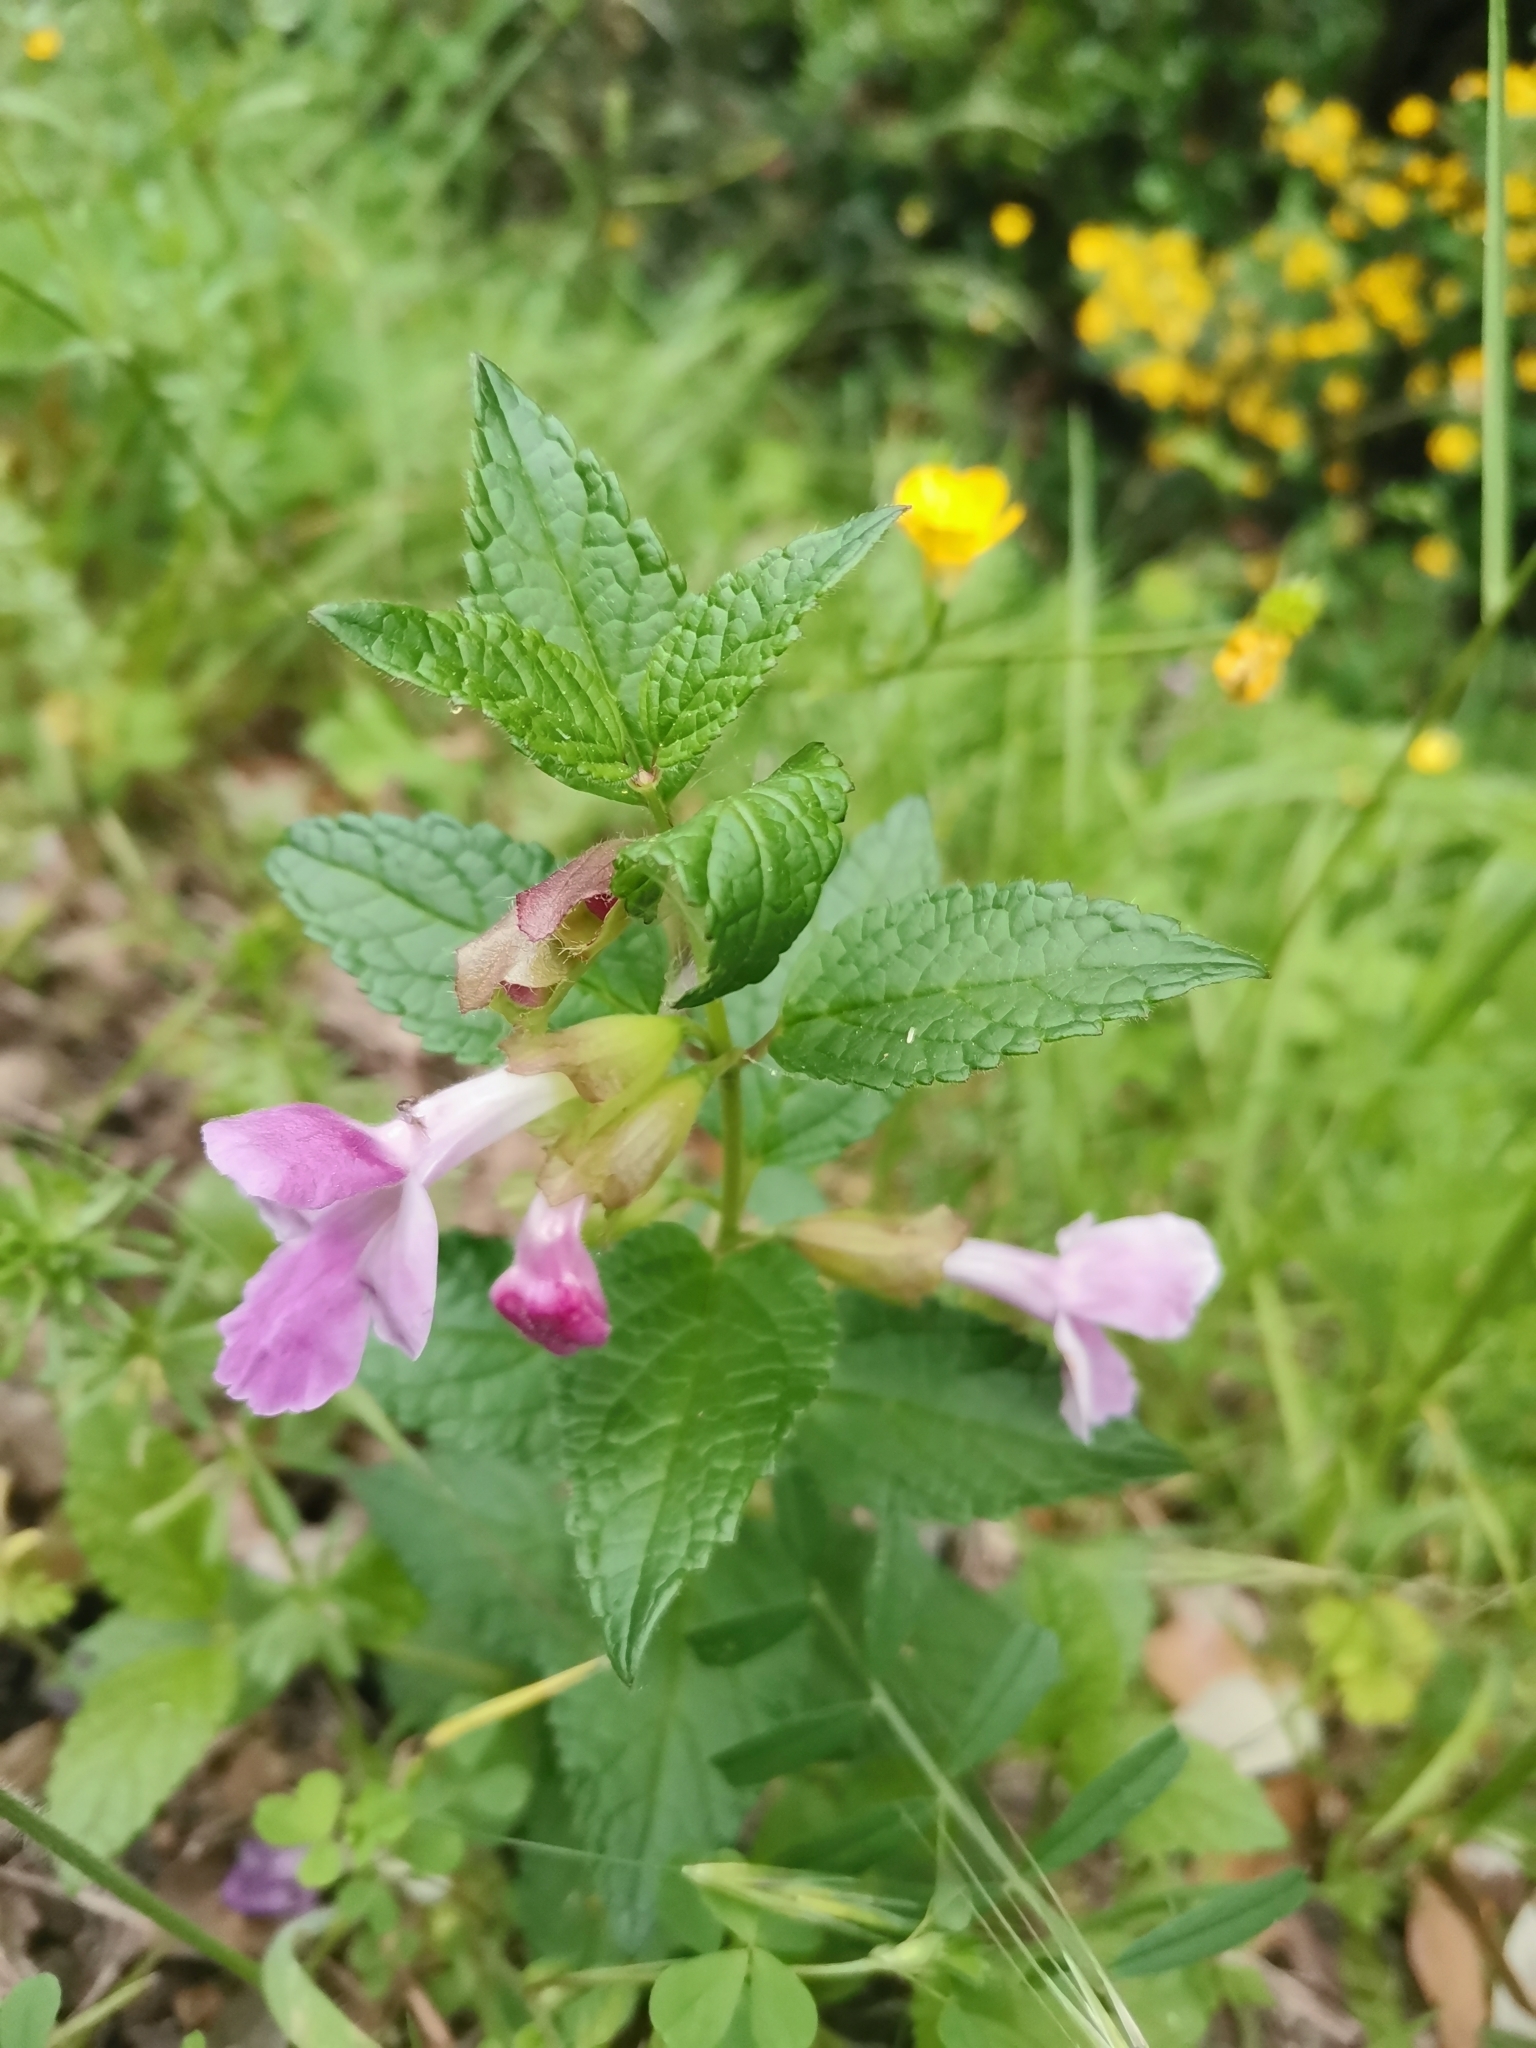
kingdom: Plantae
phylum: Tracheophyta
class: Magnoliopsida
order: Lamiales
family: Lamiaceae
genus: Melittis
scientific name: Melittis melissophyllum
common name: Bastard balm
